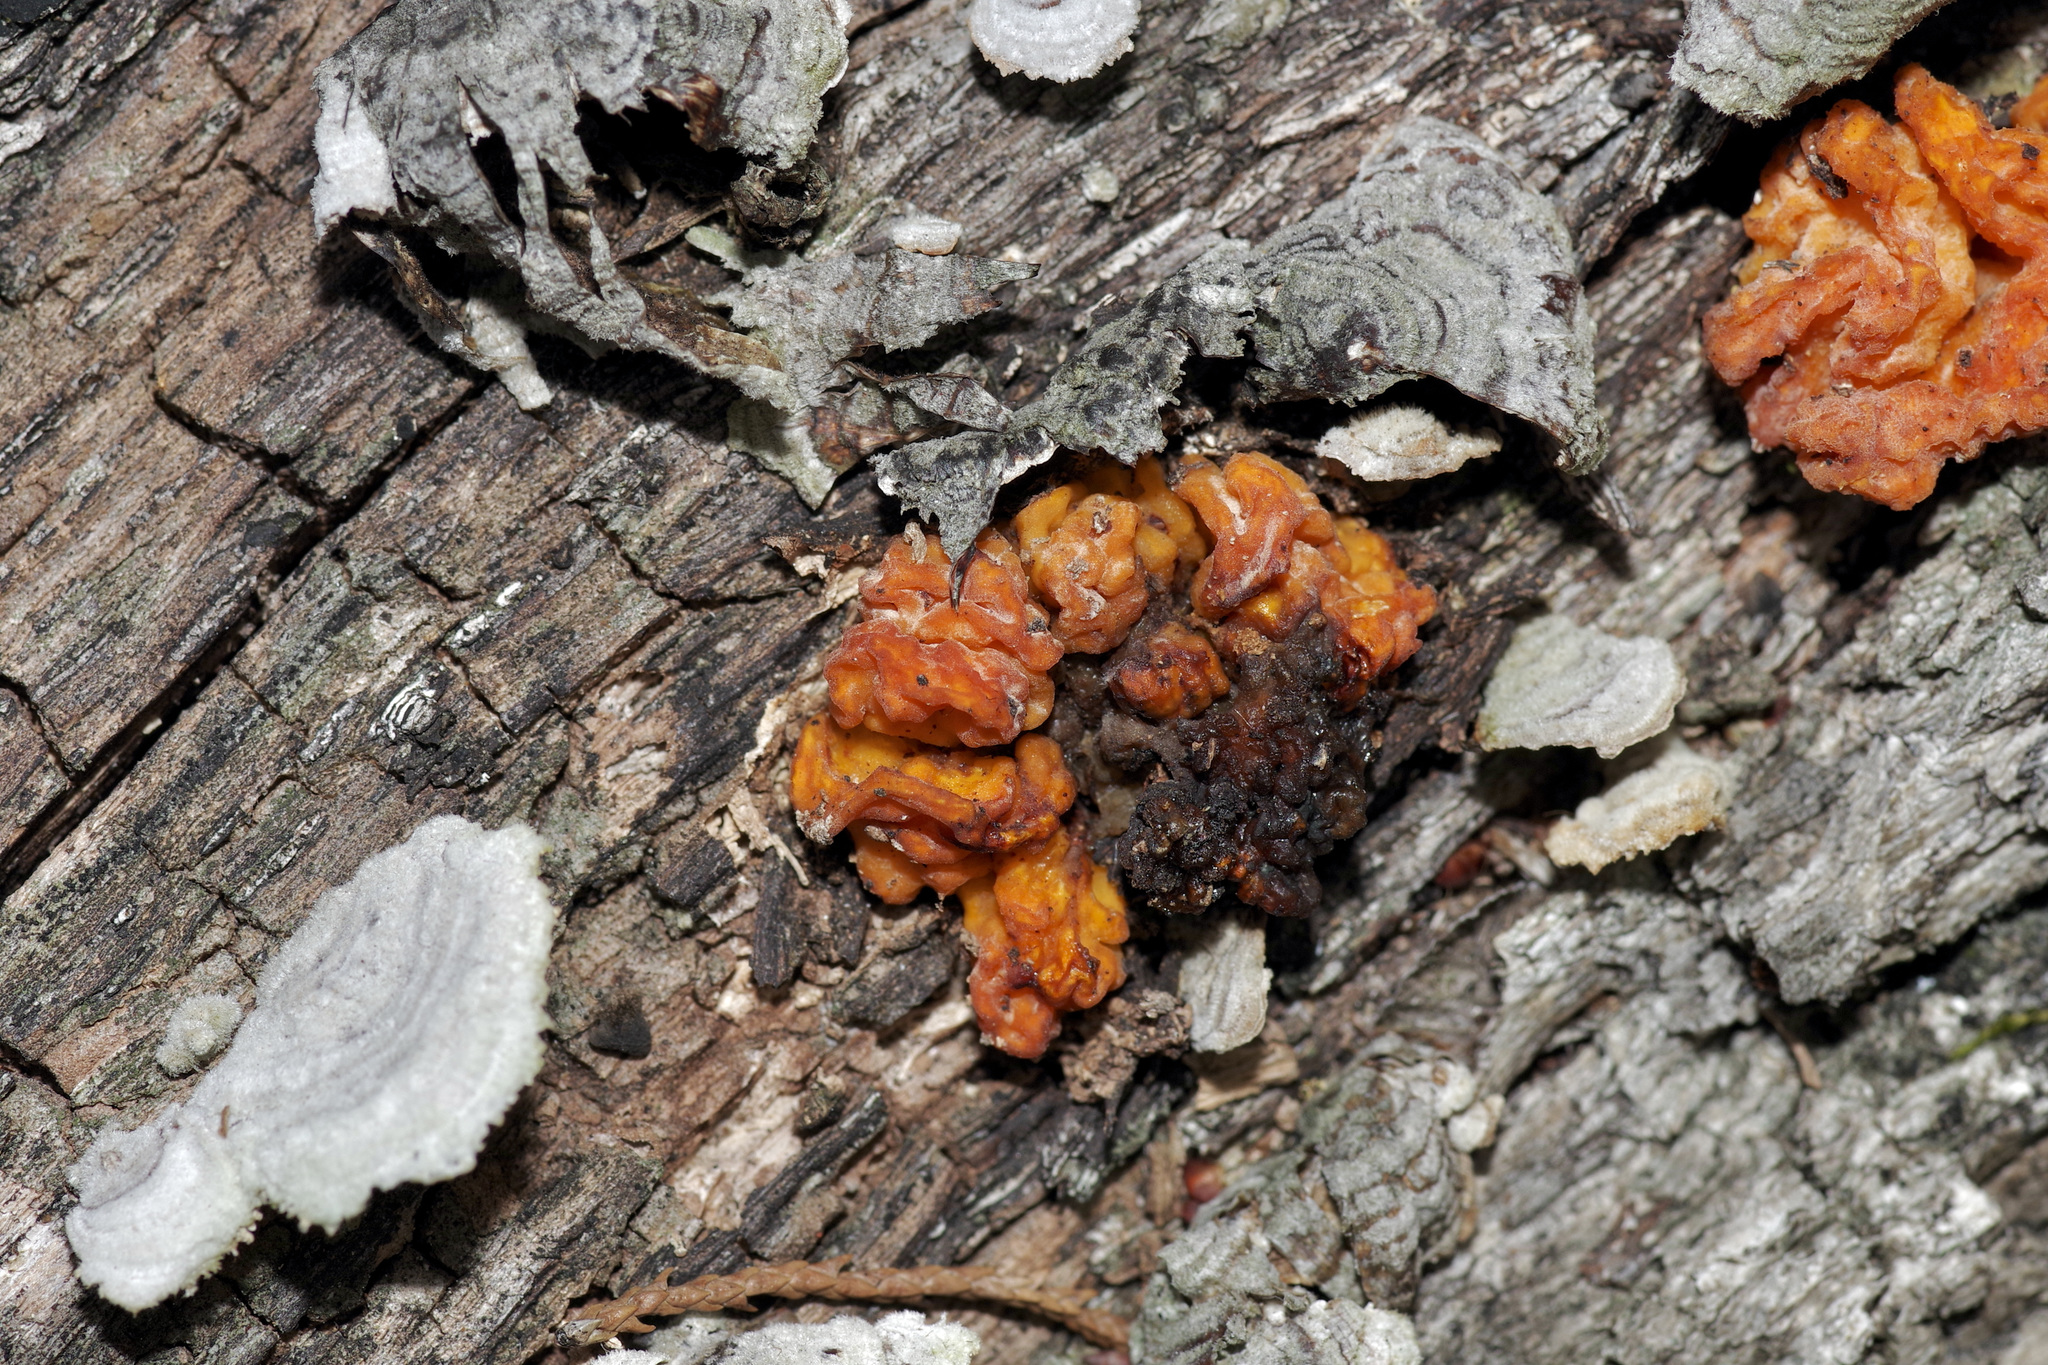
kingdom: Fungi
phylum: Basidiomycota
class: Tremellomycetes
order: Tremellales
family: Naemateliaceae
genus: Naematelia
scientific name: Naematelia aurantia
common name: Golden ear
